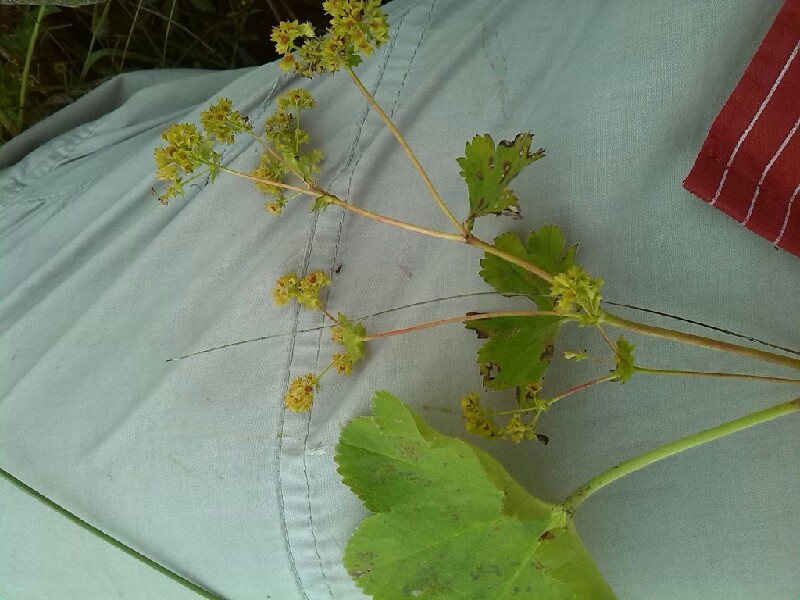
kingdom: Plantae
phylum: Tracheophyta
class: Magnoliopsida
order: Rosales
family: Rosaceae
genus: Alchemilla
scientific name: Alchemilla vulgaris
